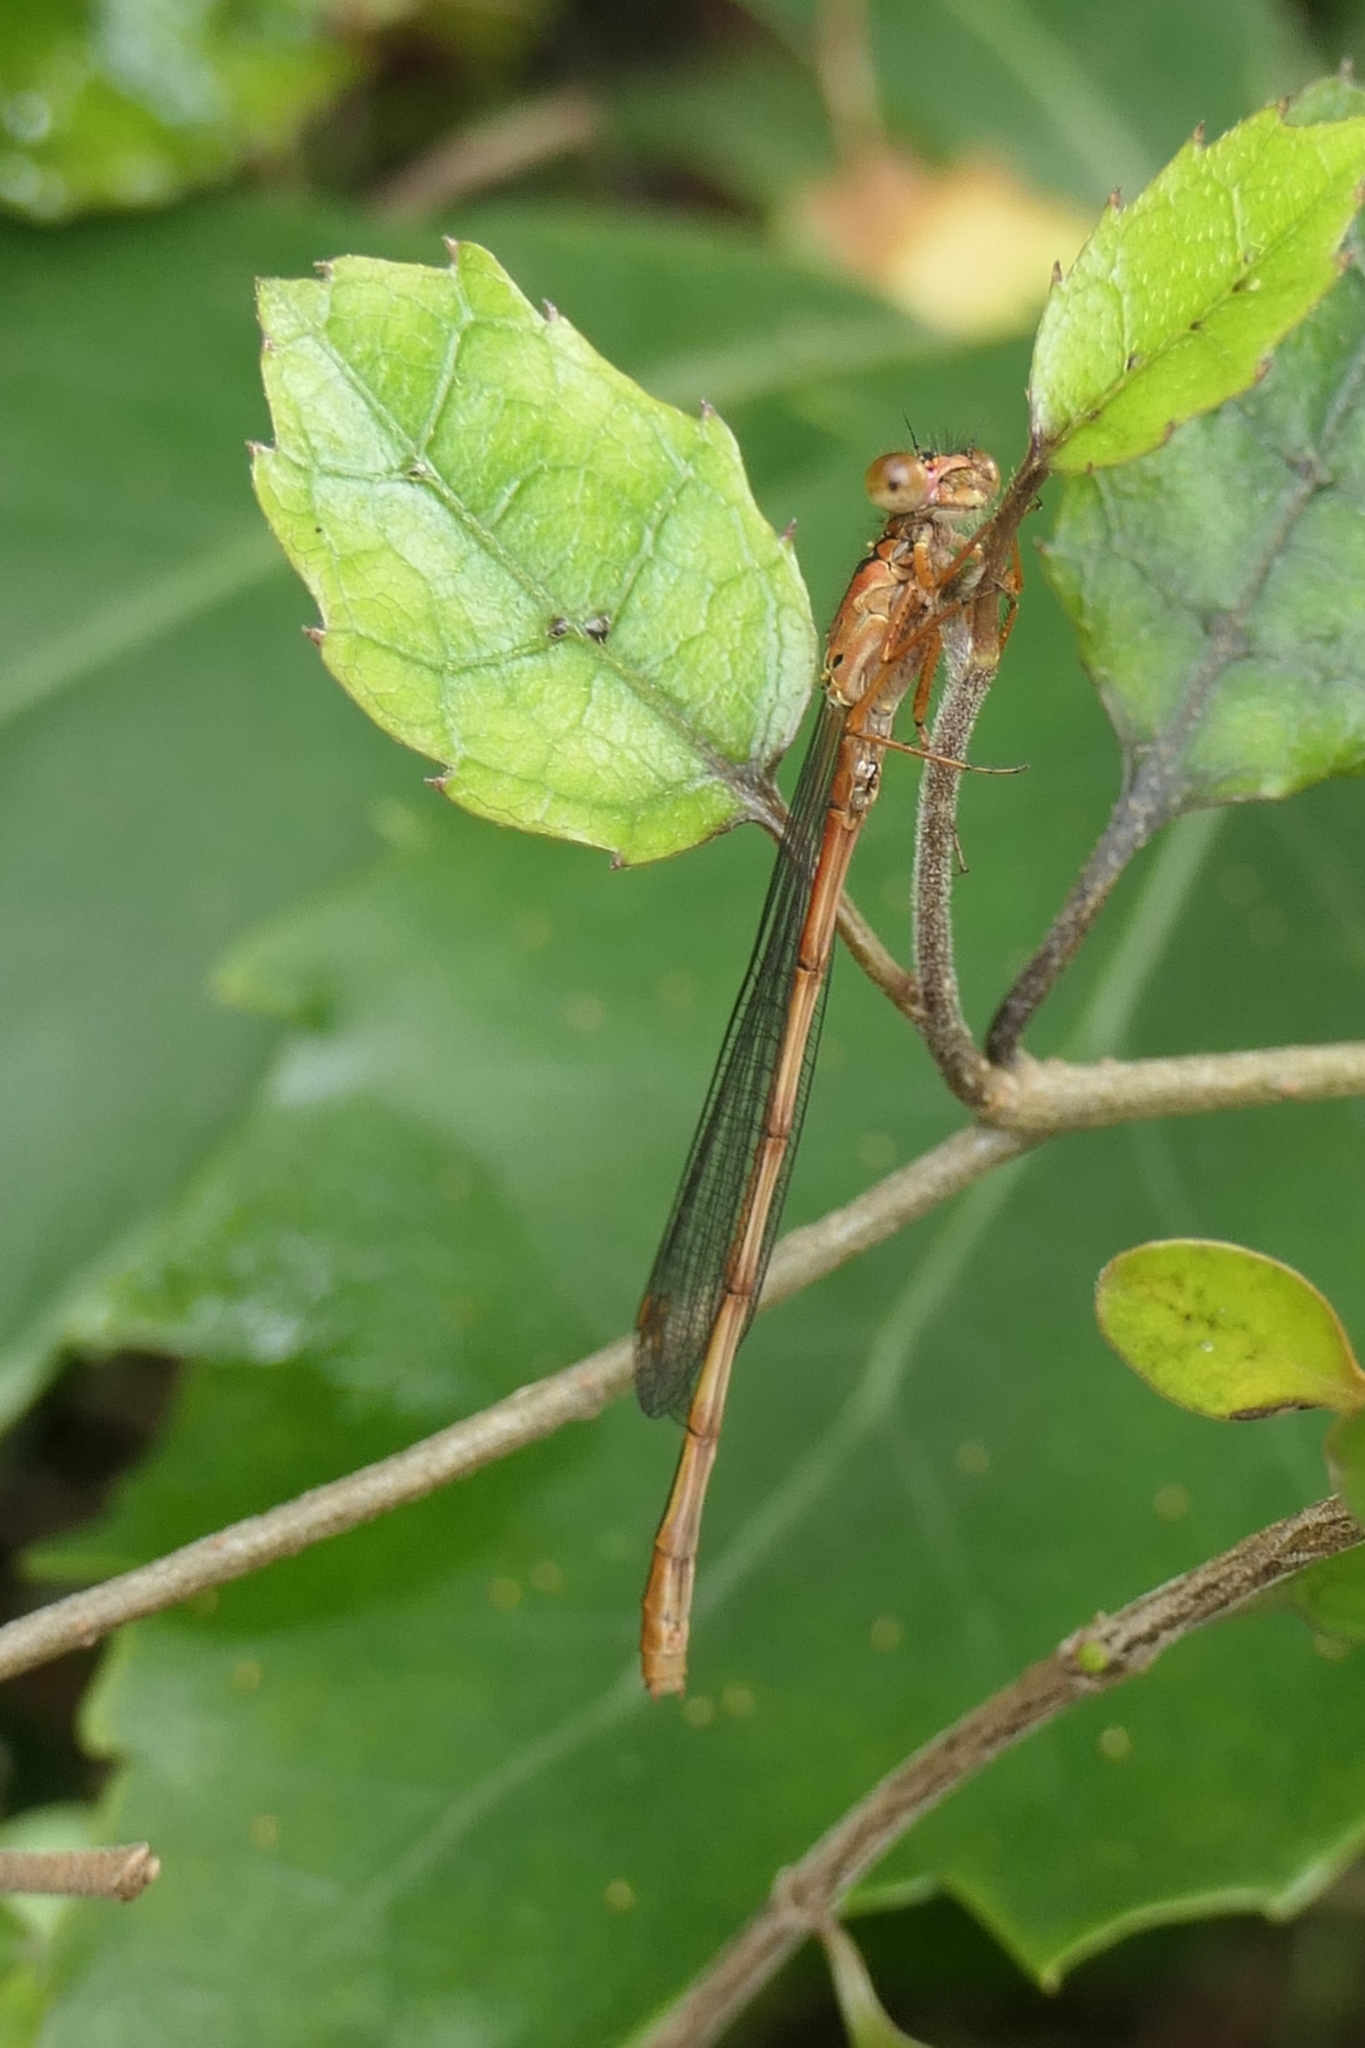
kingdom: Animalia
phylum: Arthropoda
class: Insecta
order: Odonata
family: Coenagrionidae
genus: Xanthocnemis
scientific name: Xanthocnemis zealandica
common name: Common redcoat damselfly
